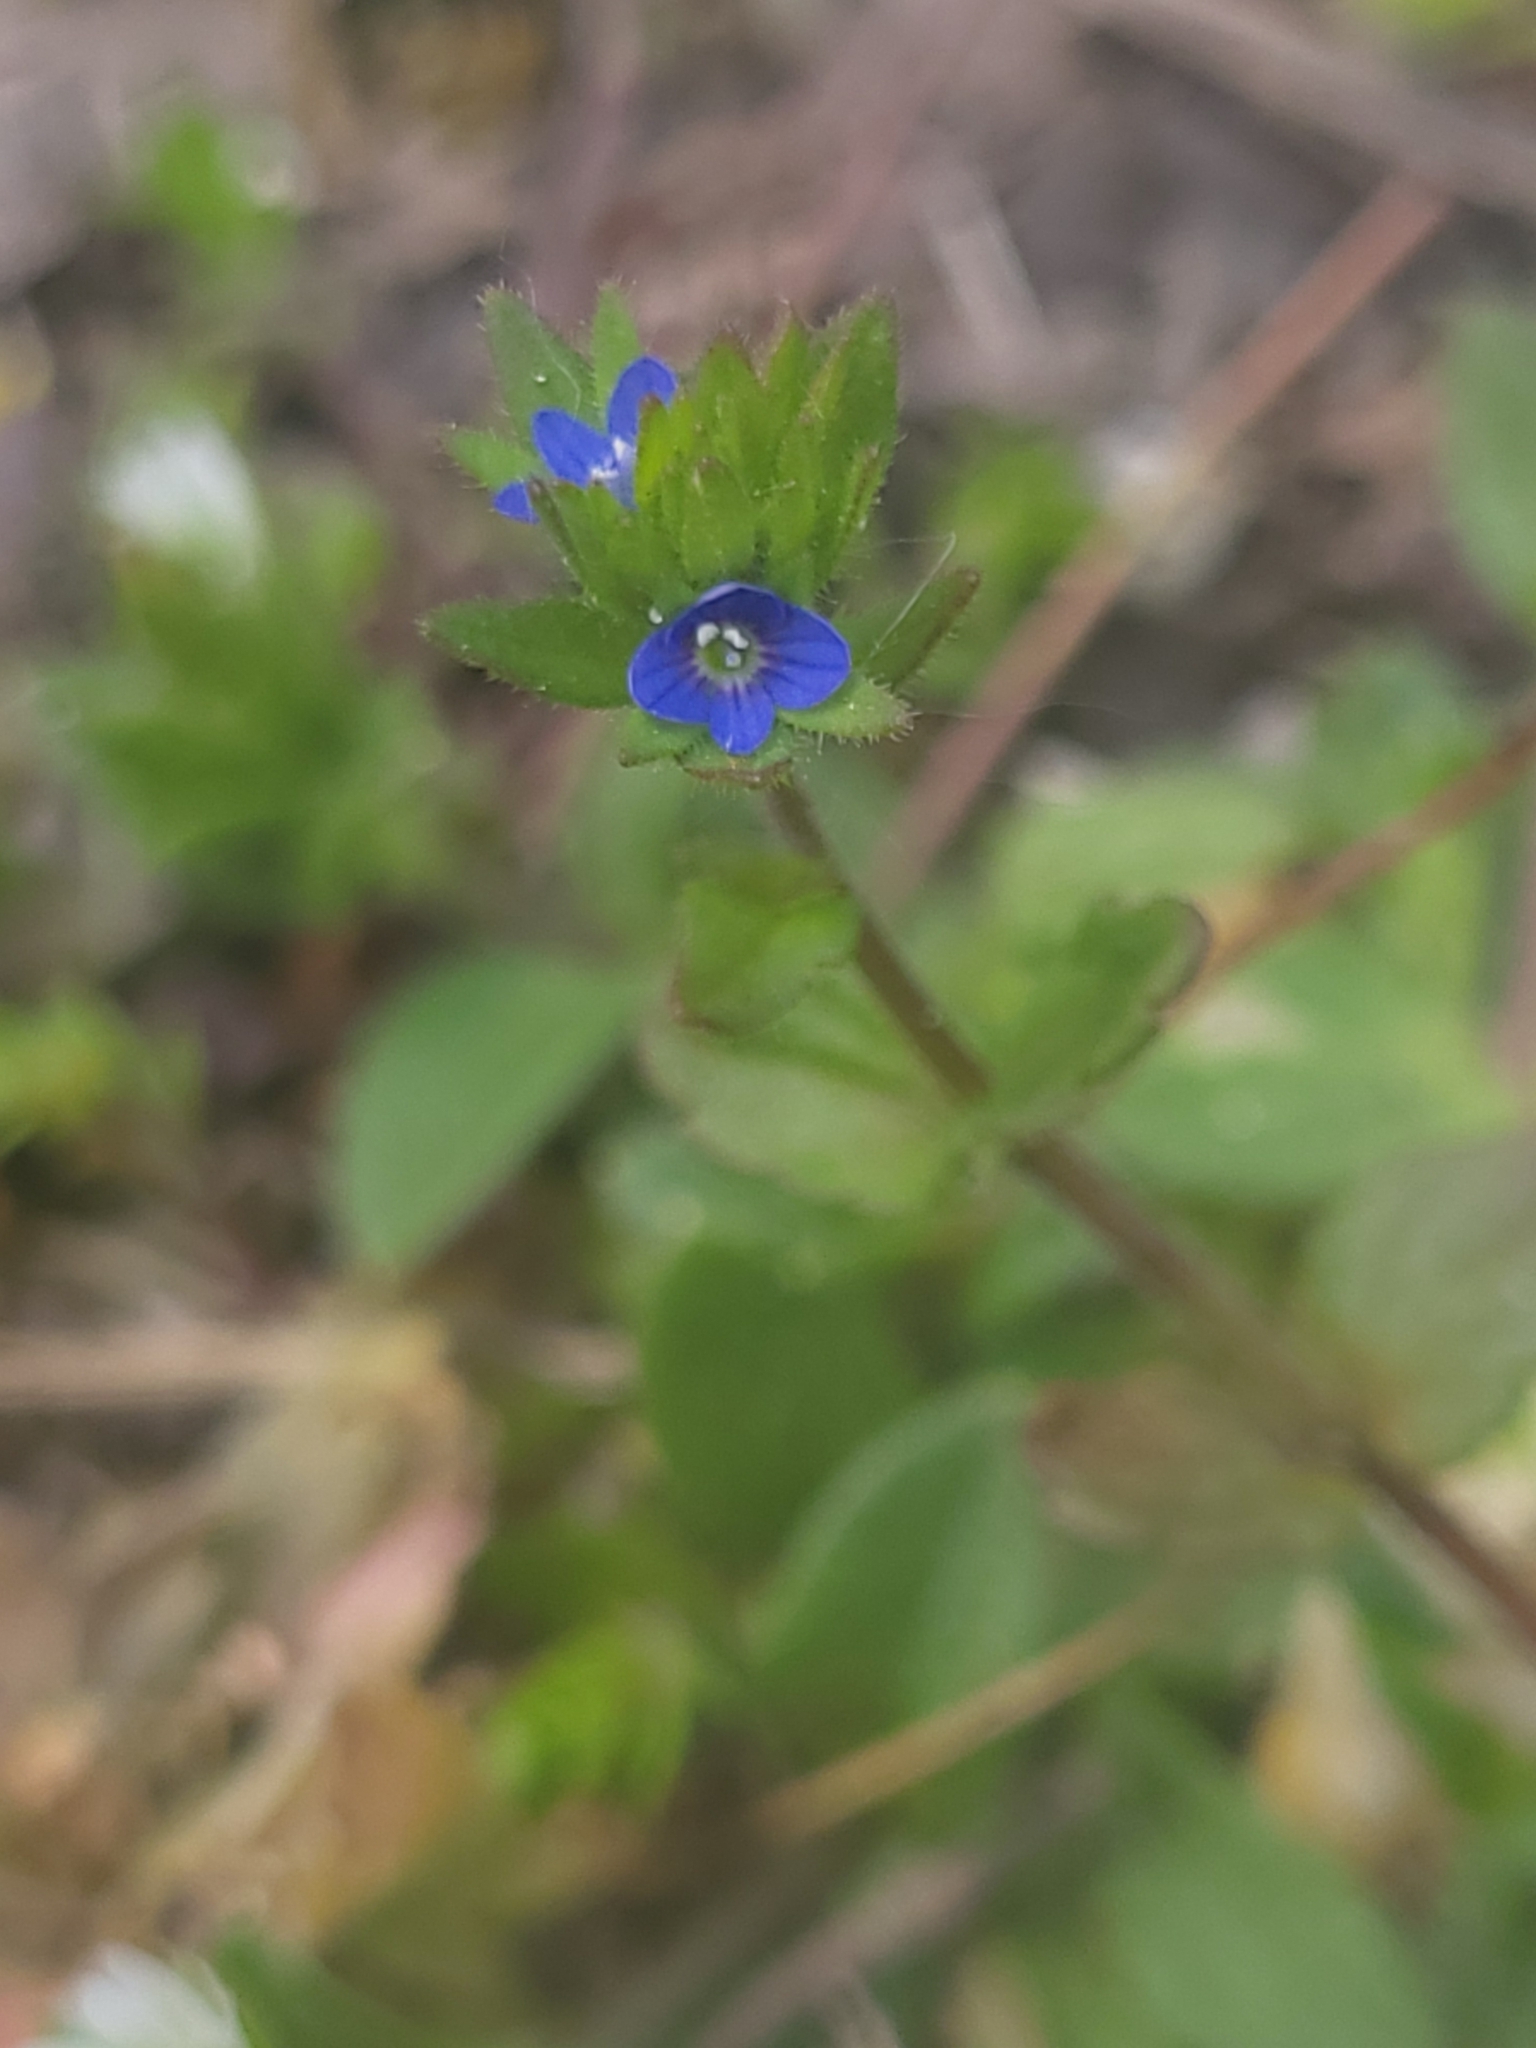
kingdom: Plantae
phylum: Tracheophyta
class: Magnoliopsida
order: Lamiales
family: Plantaginaceae
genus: Veronica
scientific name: Veronica arvensis
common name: Corn speedwell
